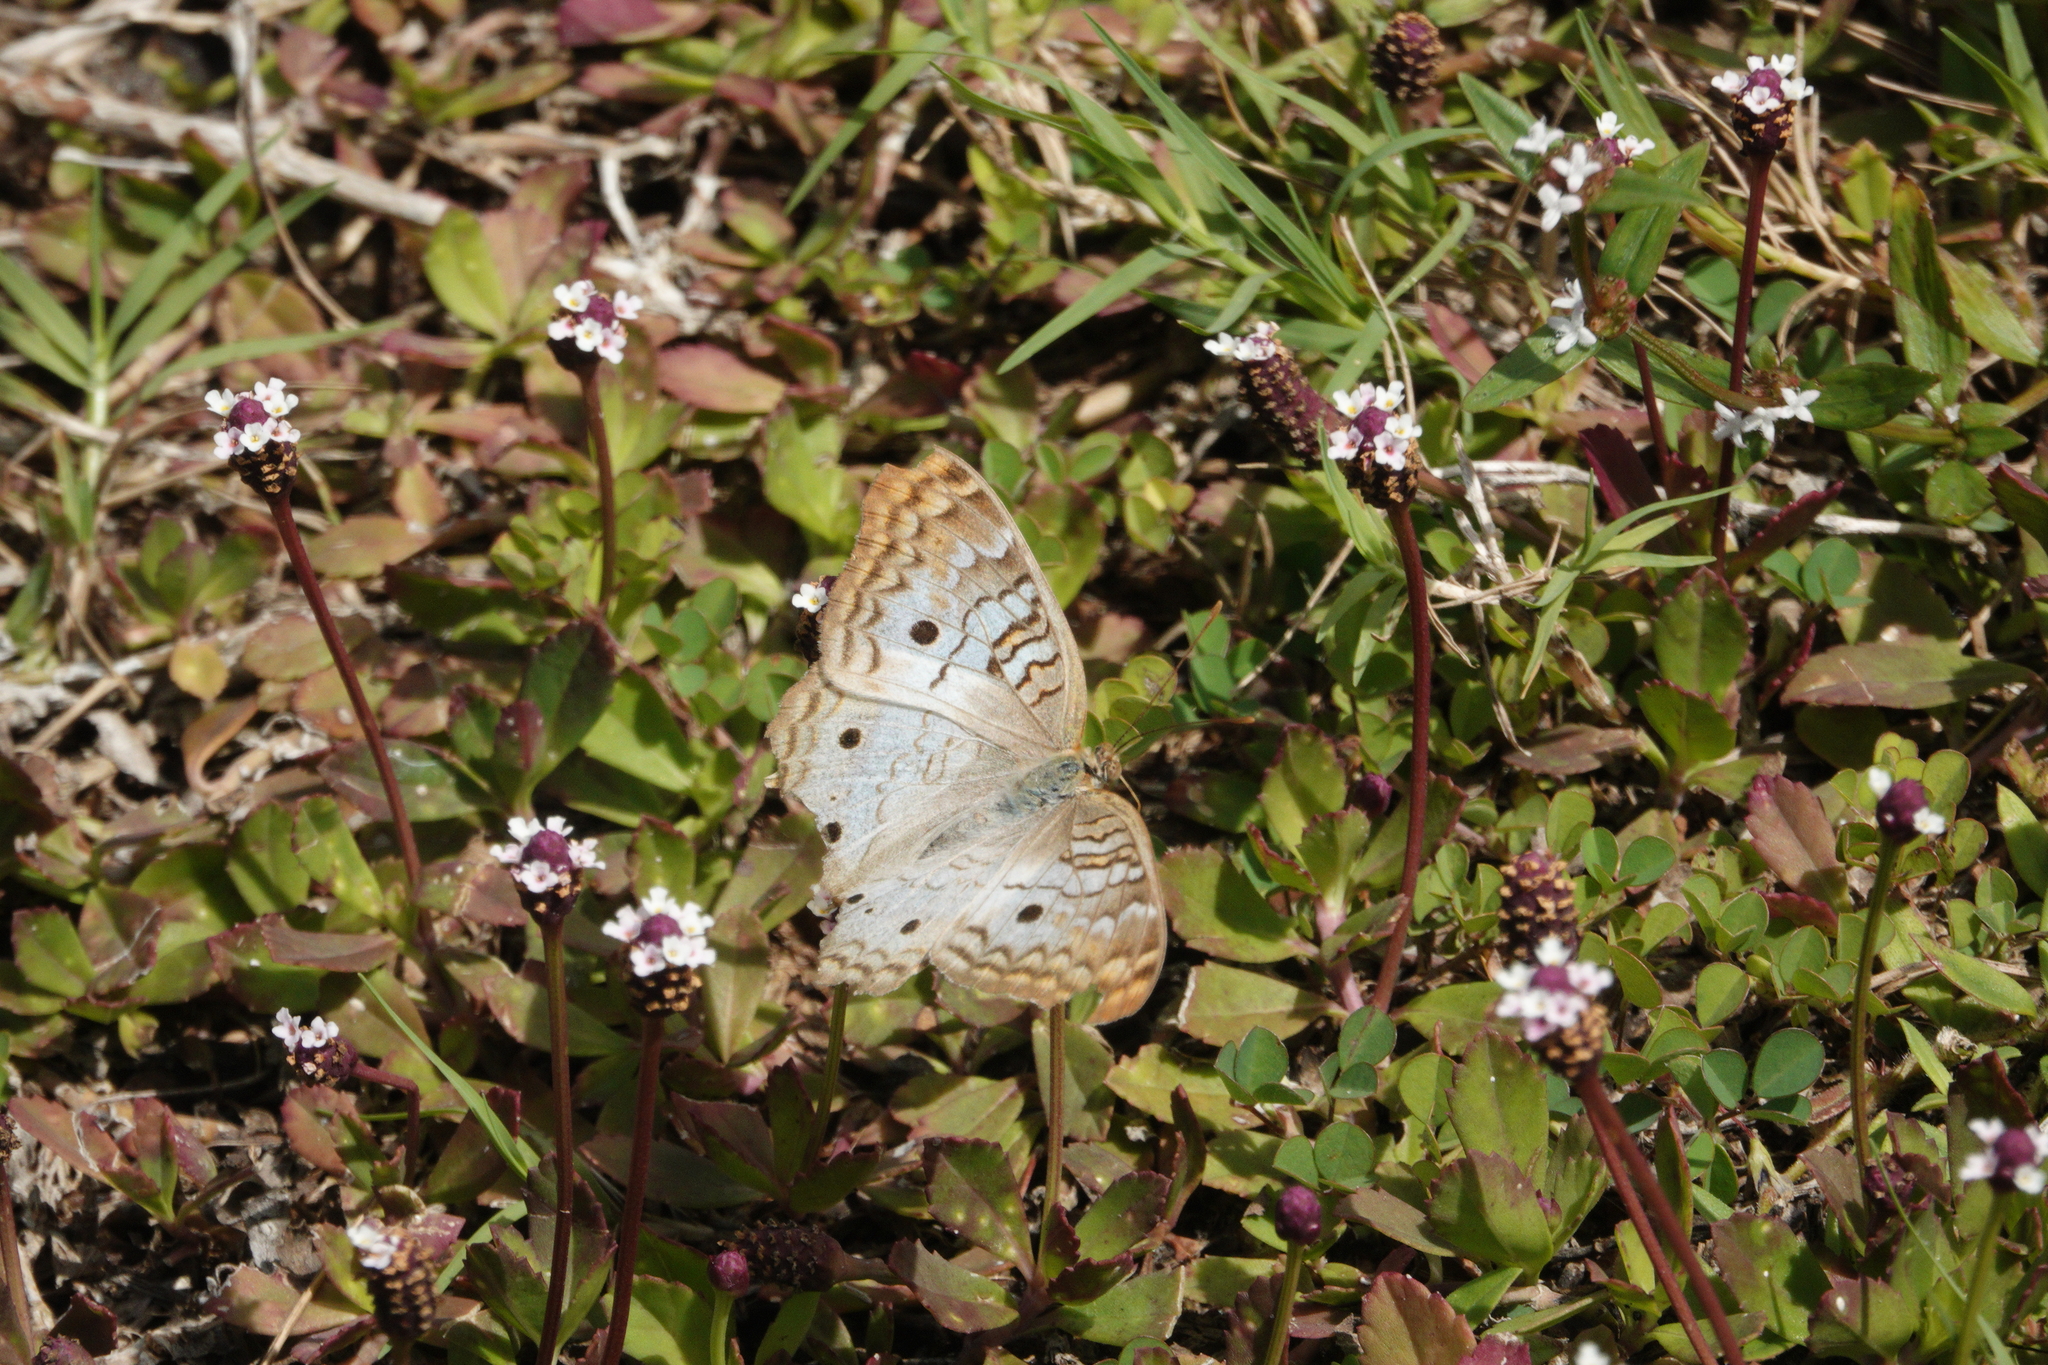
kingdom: Animalia
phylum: Arthropoda
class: Insecta
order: Lepidoptera
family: Nymphalidae
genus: Anartia
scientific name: Anartia jatrophae
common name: White peacock
